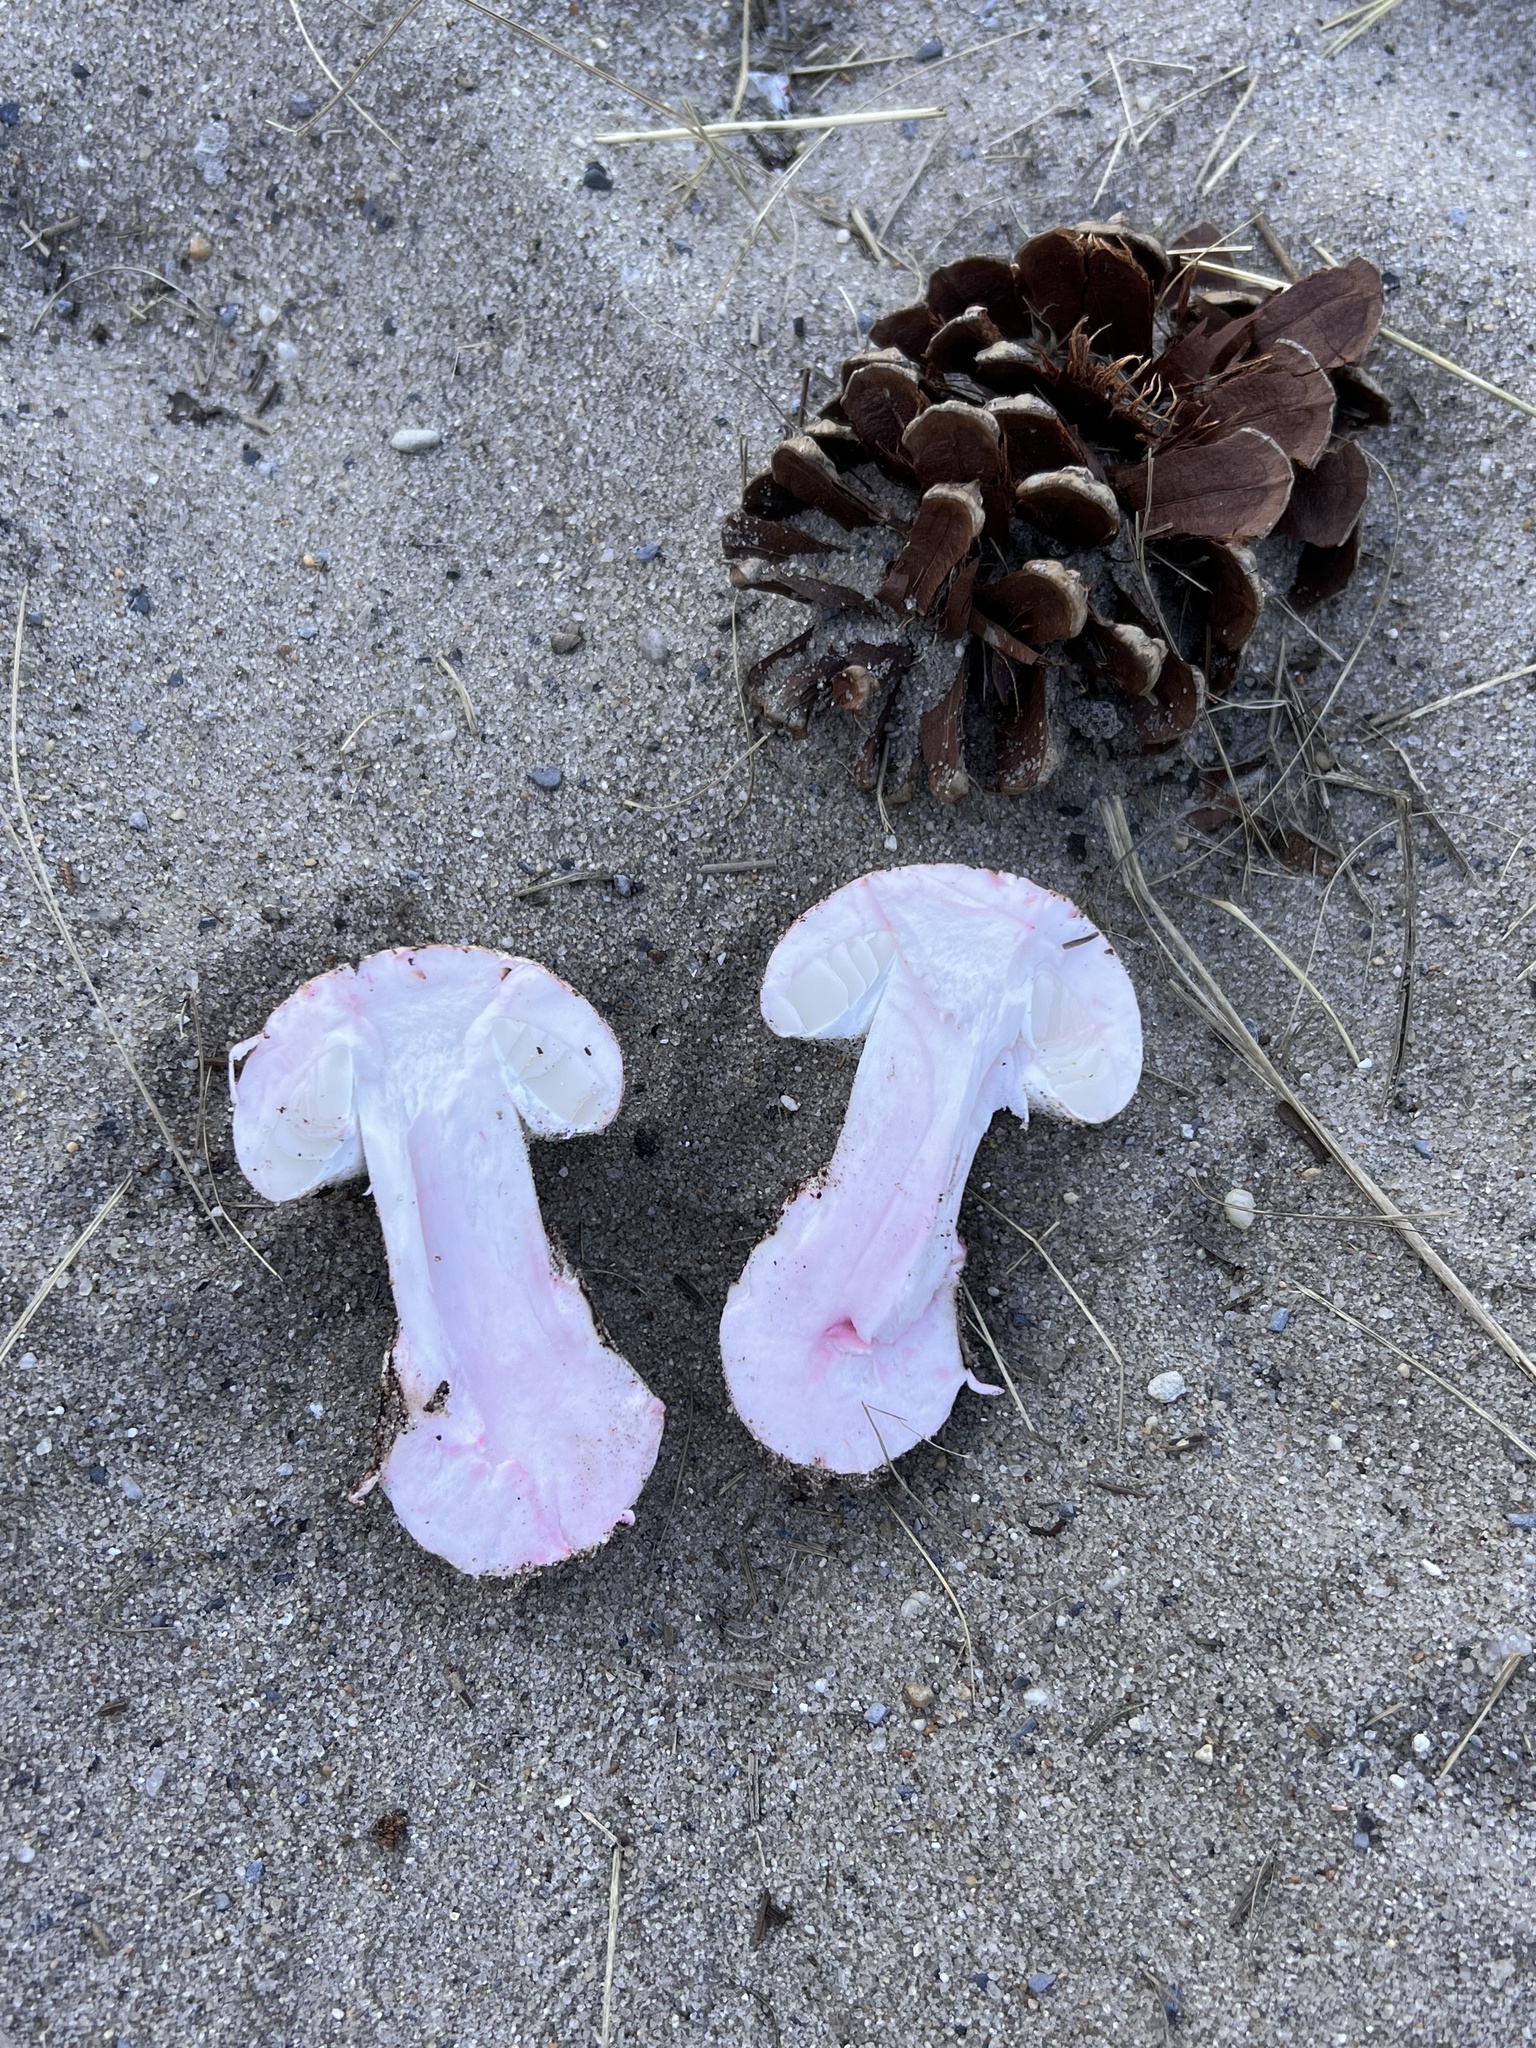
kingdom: Fungi
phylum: Basidiomycota
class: Agaricomycetes
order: Agaricales
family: Amanitaceae
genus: Amanita
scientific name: Amanita mutabilis
